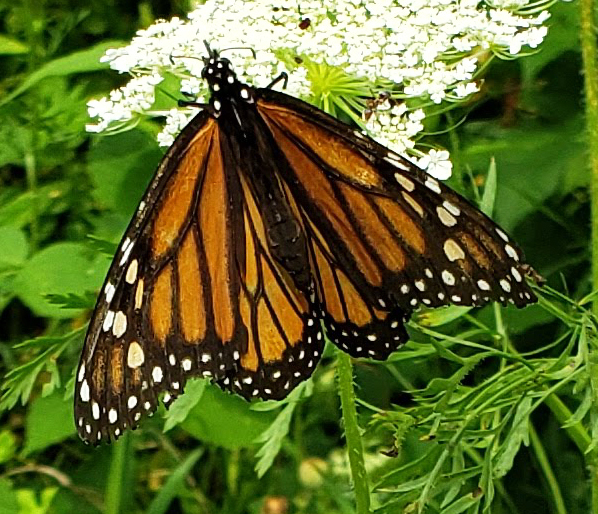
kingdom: Animalia
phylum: Arthropoda
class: Insecta
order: Lepidoptera
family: Nymphalidae
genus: Danaus
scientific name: Danaus plexippus
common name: Monarch
